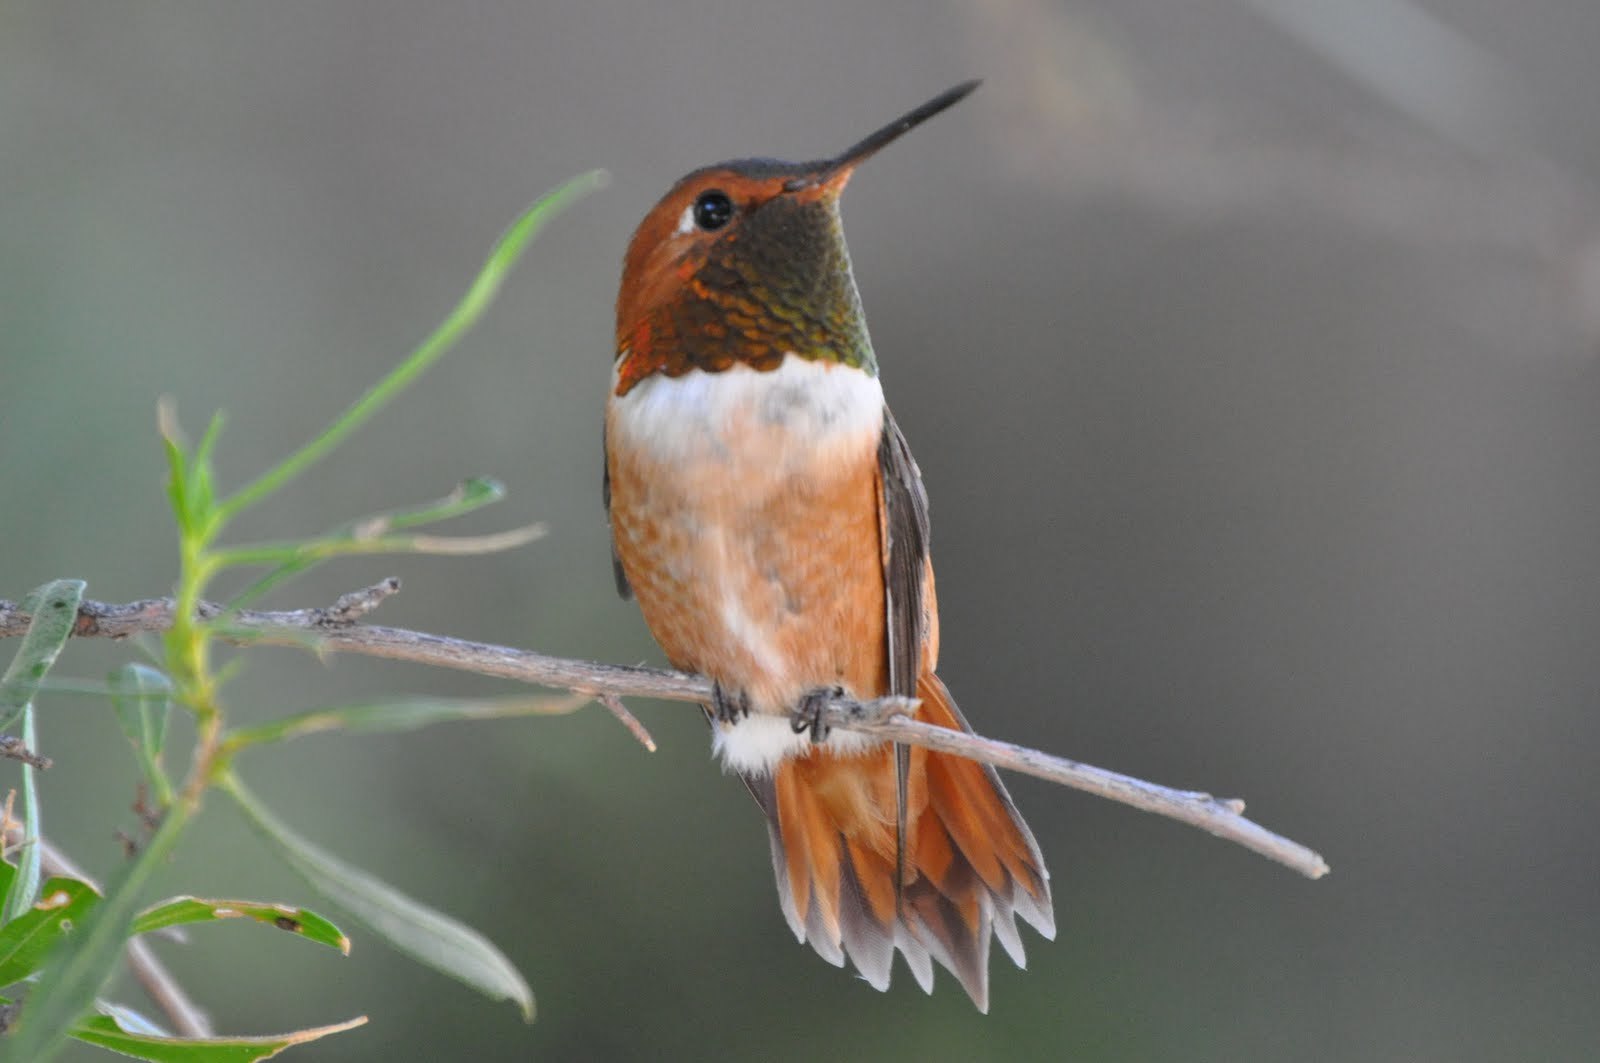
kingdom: Animalia
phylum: Chordata
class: Aves
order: Apodiformes
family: Trochilidae
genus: Selasphorus
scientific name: Selasphorus rufus
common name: Rufous hummingbird
